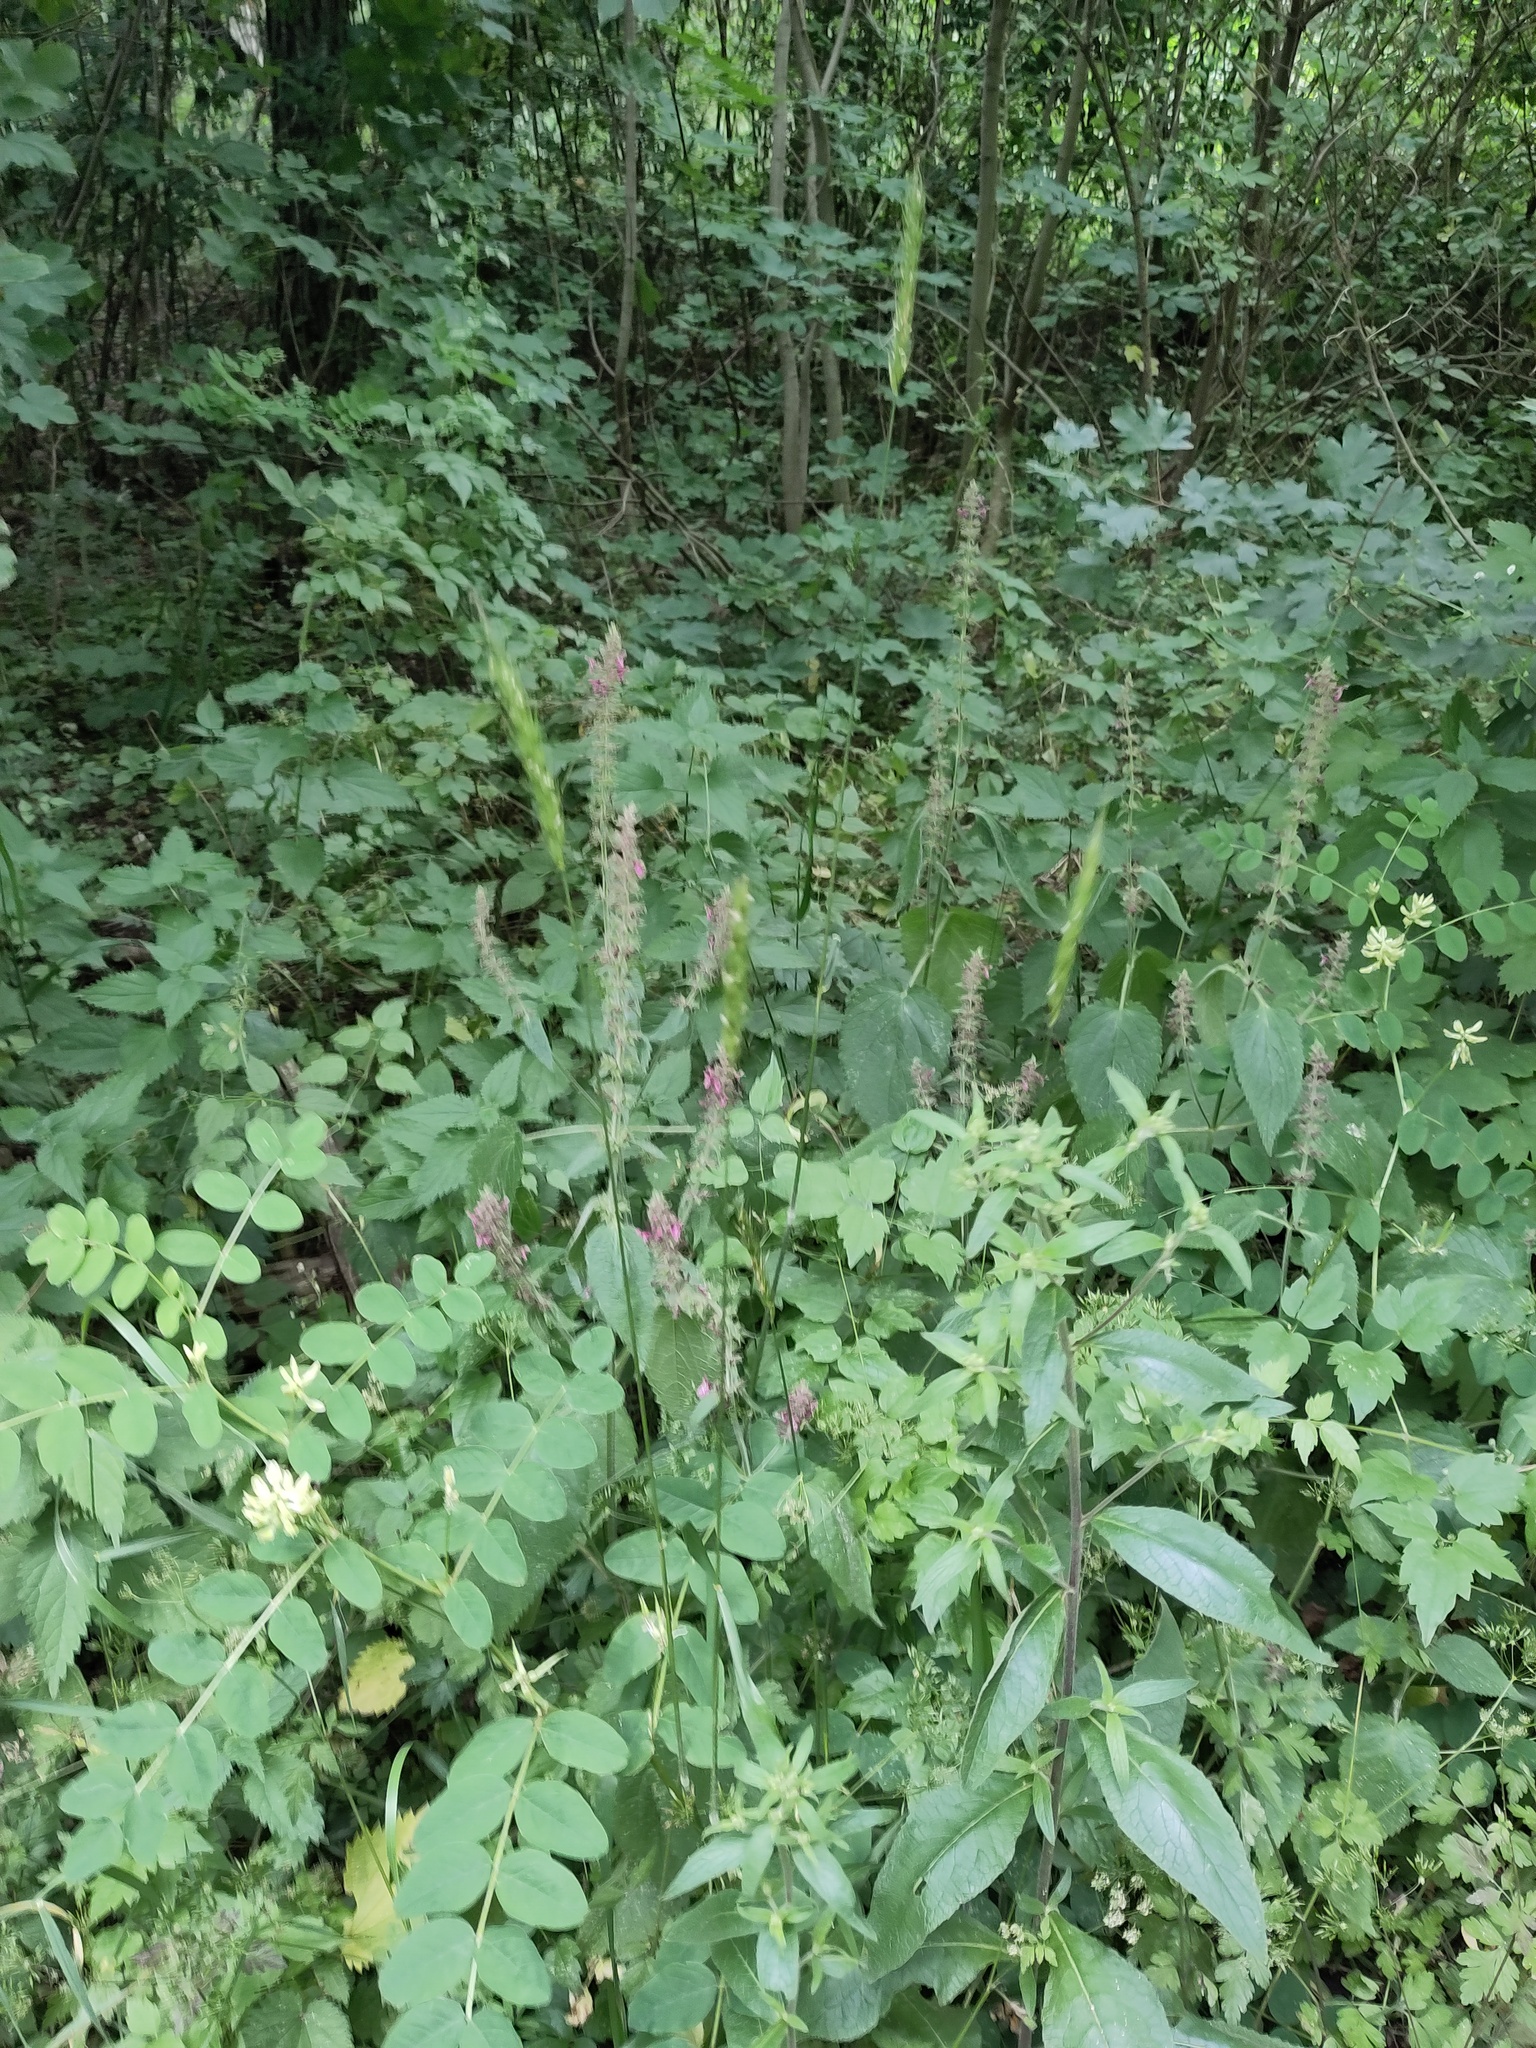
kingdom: Plantae
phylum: Tracheophyta
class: Liliopsida
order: Poales
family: Poaceae
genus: Hordelymus
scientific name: Hordelymus europaeus
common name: Wood-barley
